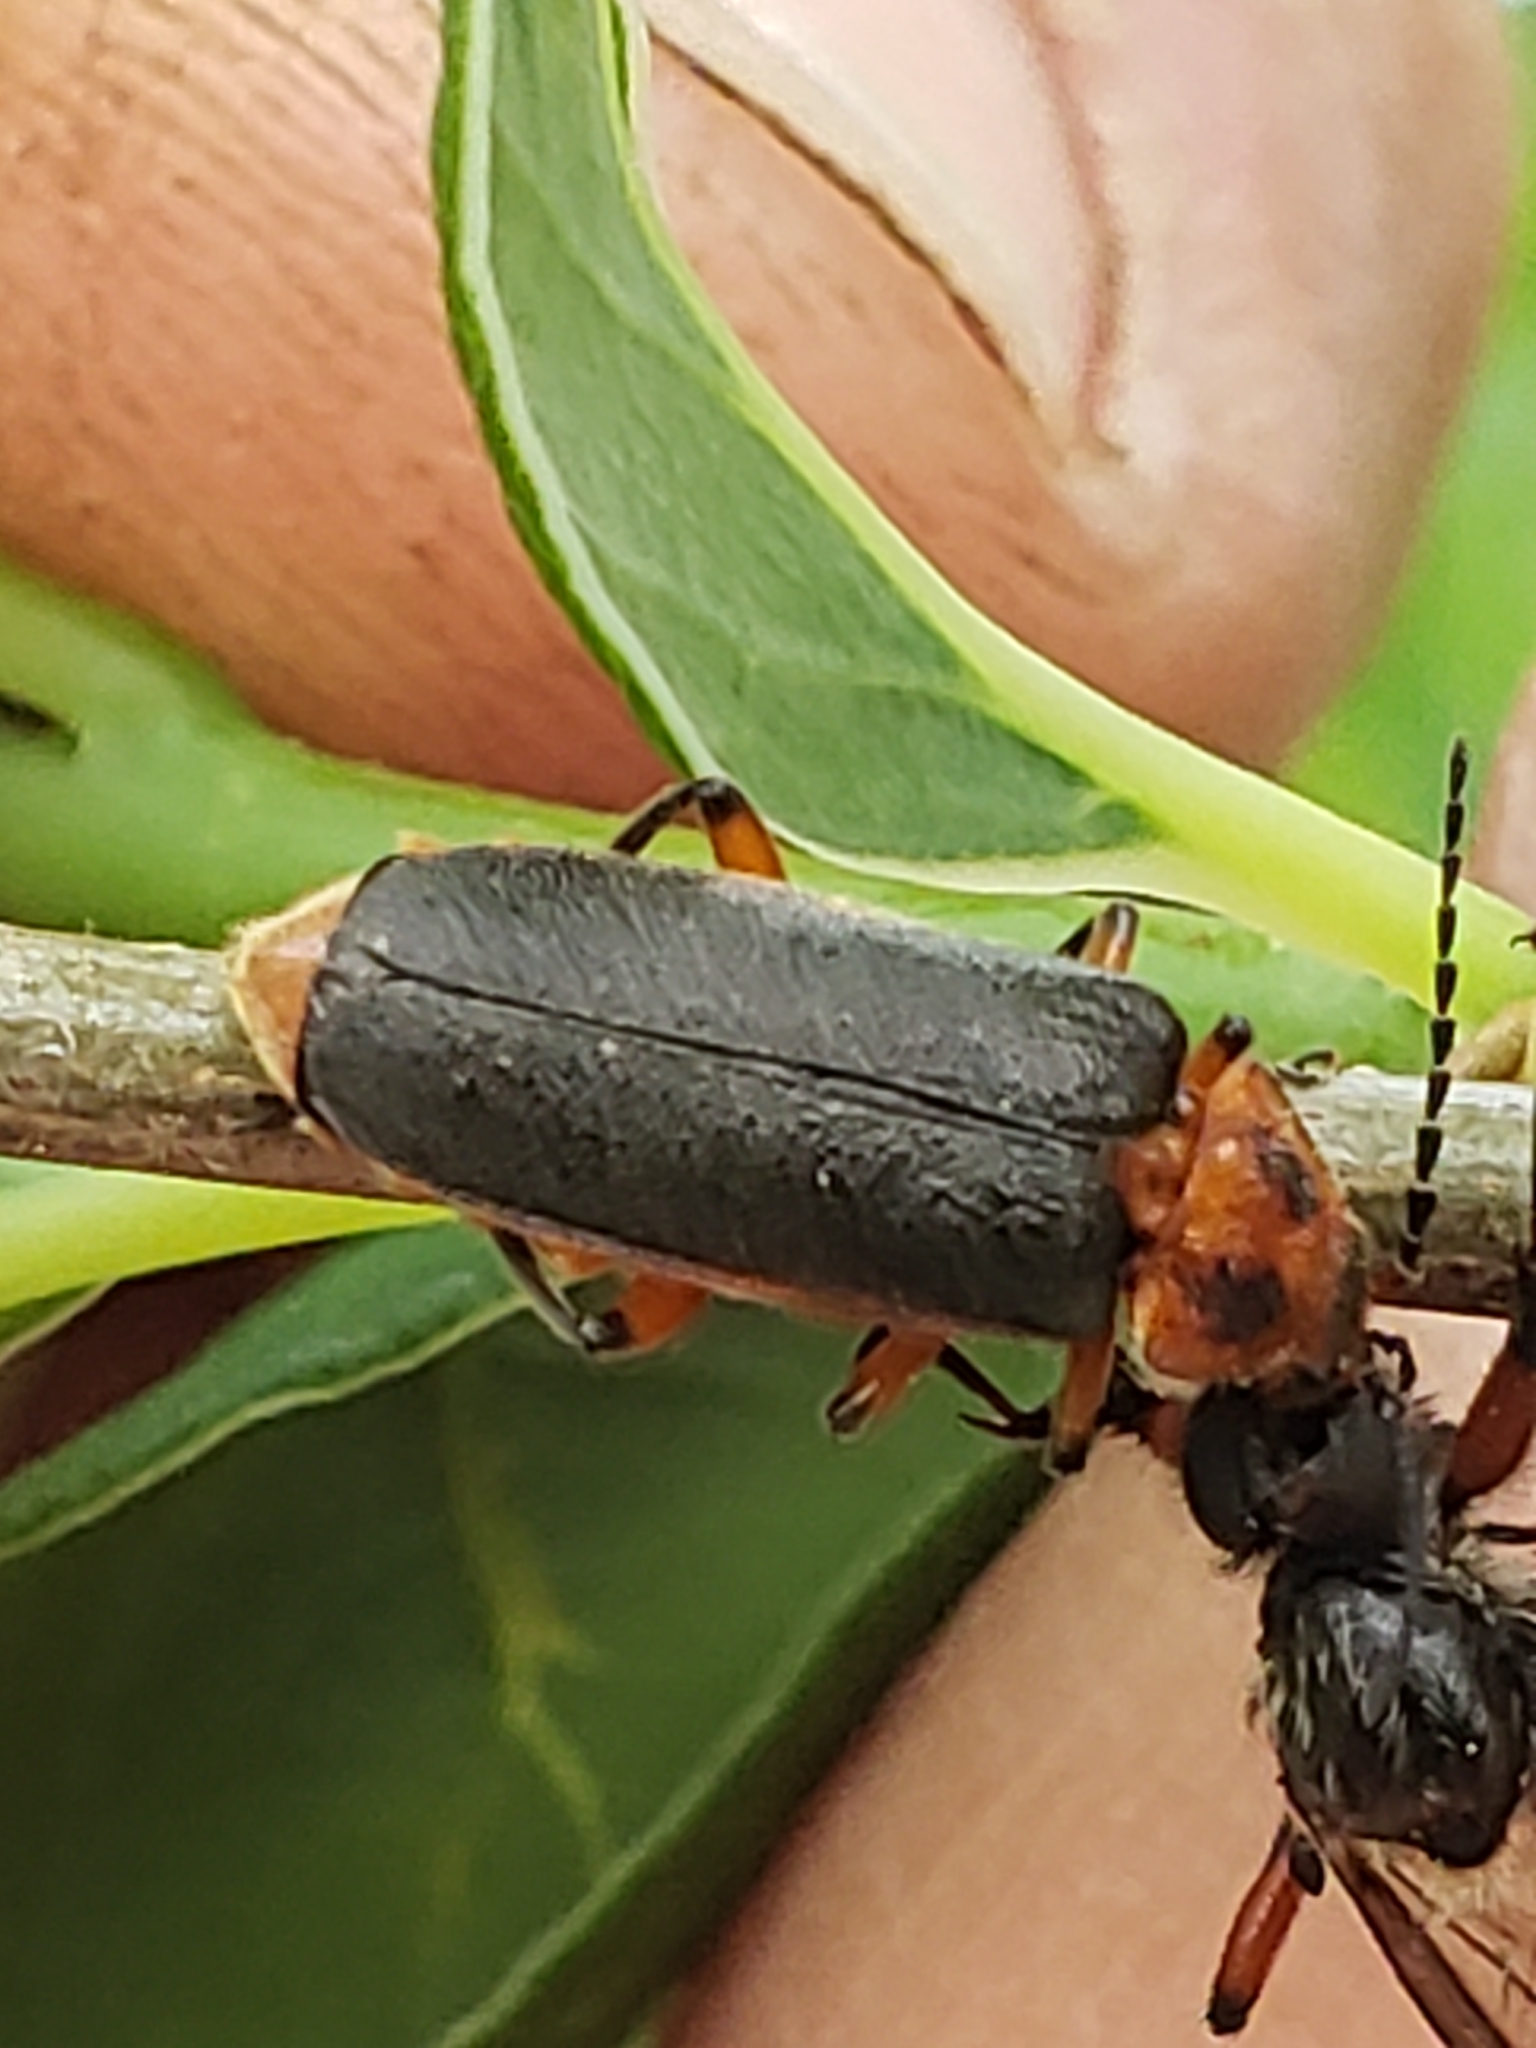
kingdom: Animalia
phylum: Arthropoda
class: Insecta
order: Coleoptera
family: Cantharidae
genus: Atalantycha
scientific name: Atalantycha bilineata
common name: Two-lined leatherwing
